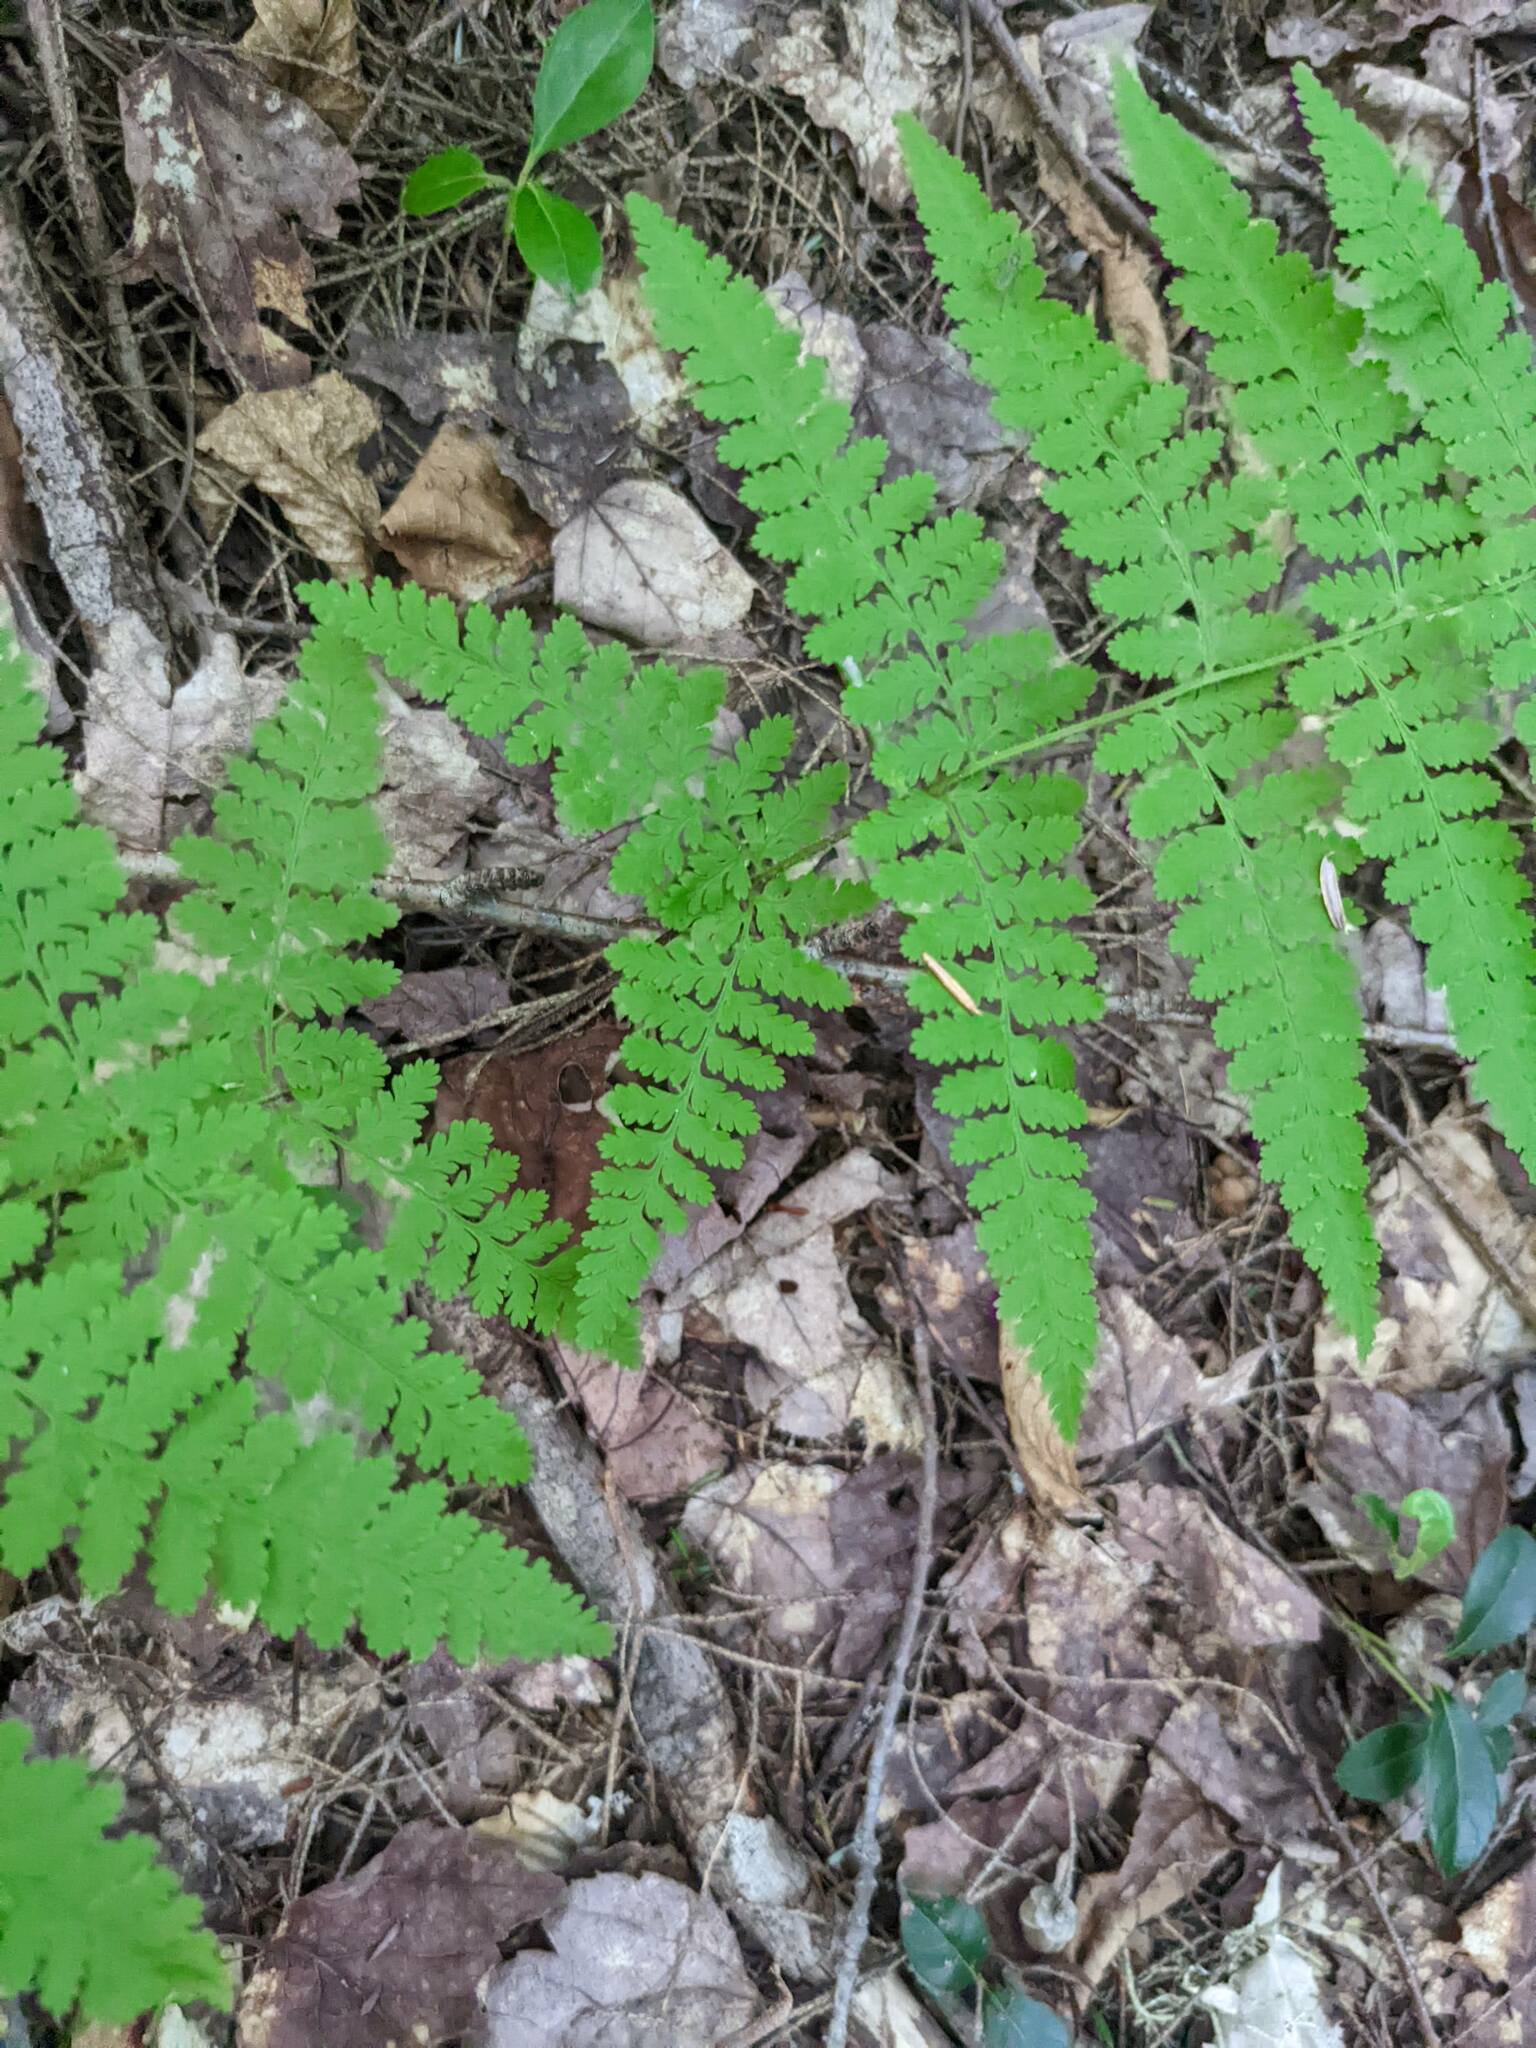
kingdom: Plantae
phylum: Tracheophyta
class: Polypodiopsida
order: Polypodiales
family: Dennstaedtiaceae
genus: Sitobolium
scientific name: Sitobolium punctilobum
